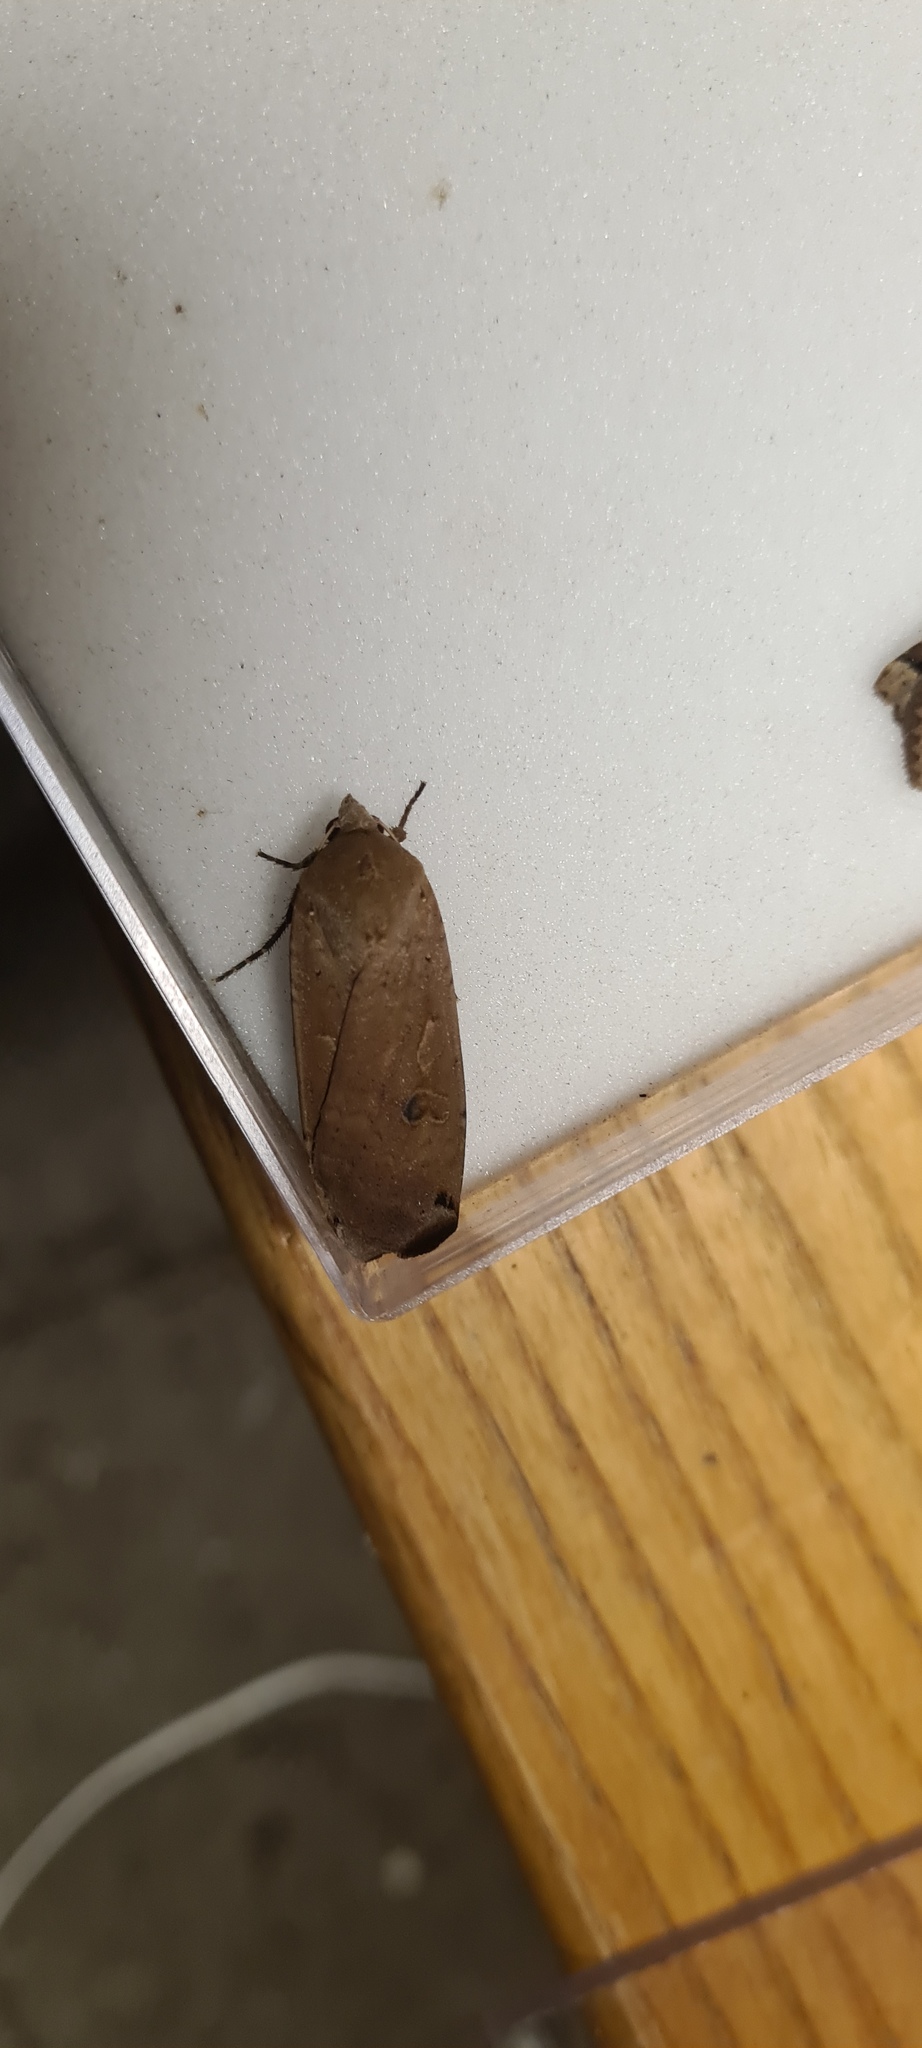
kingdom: Animalia
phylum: Arthropoda
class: Insecta
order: Lepidoptera
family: Noctuidae
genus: Noctua
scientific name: Noctua pronuba
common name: Large yellow underwing
